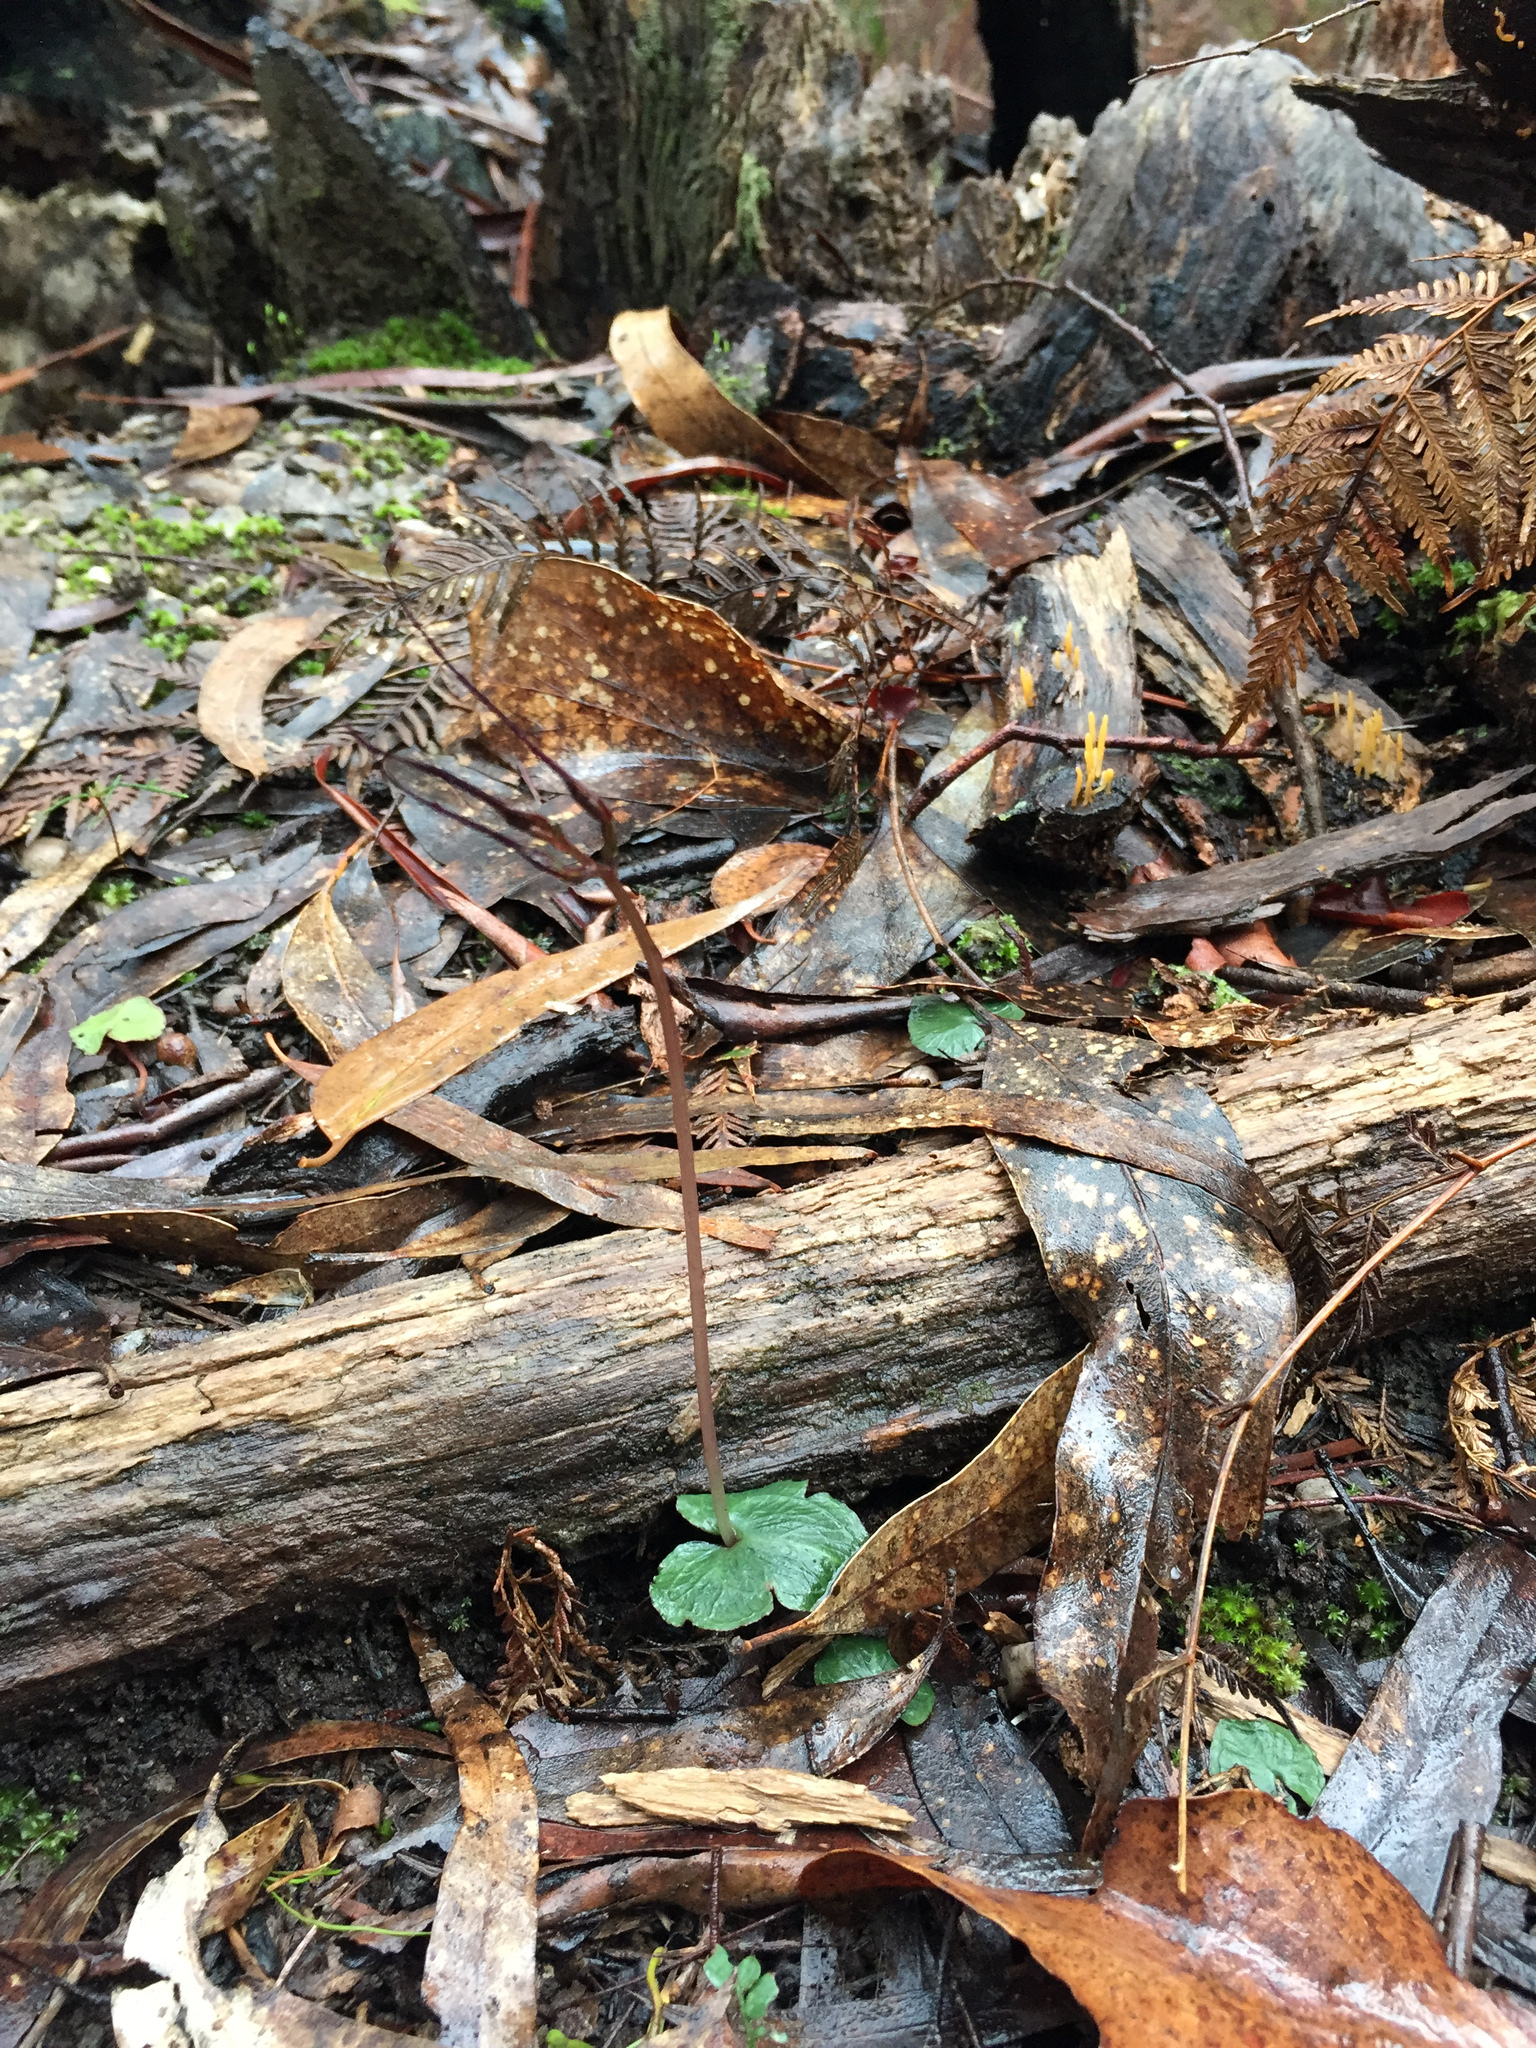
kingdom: Plantae
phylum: Tracheophyta
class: Liliopsida
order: Asparagales
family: Orchidaceae
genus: Acianthus
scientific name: Acianthus caudatus
